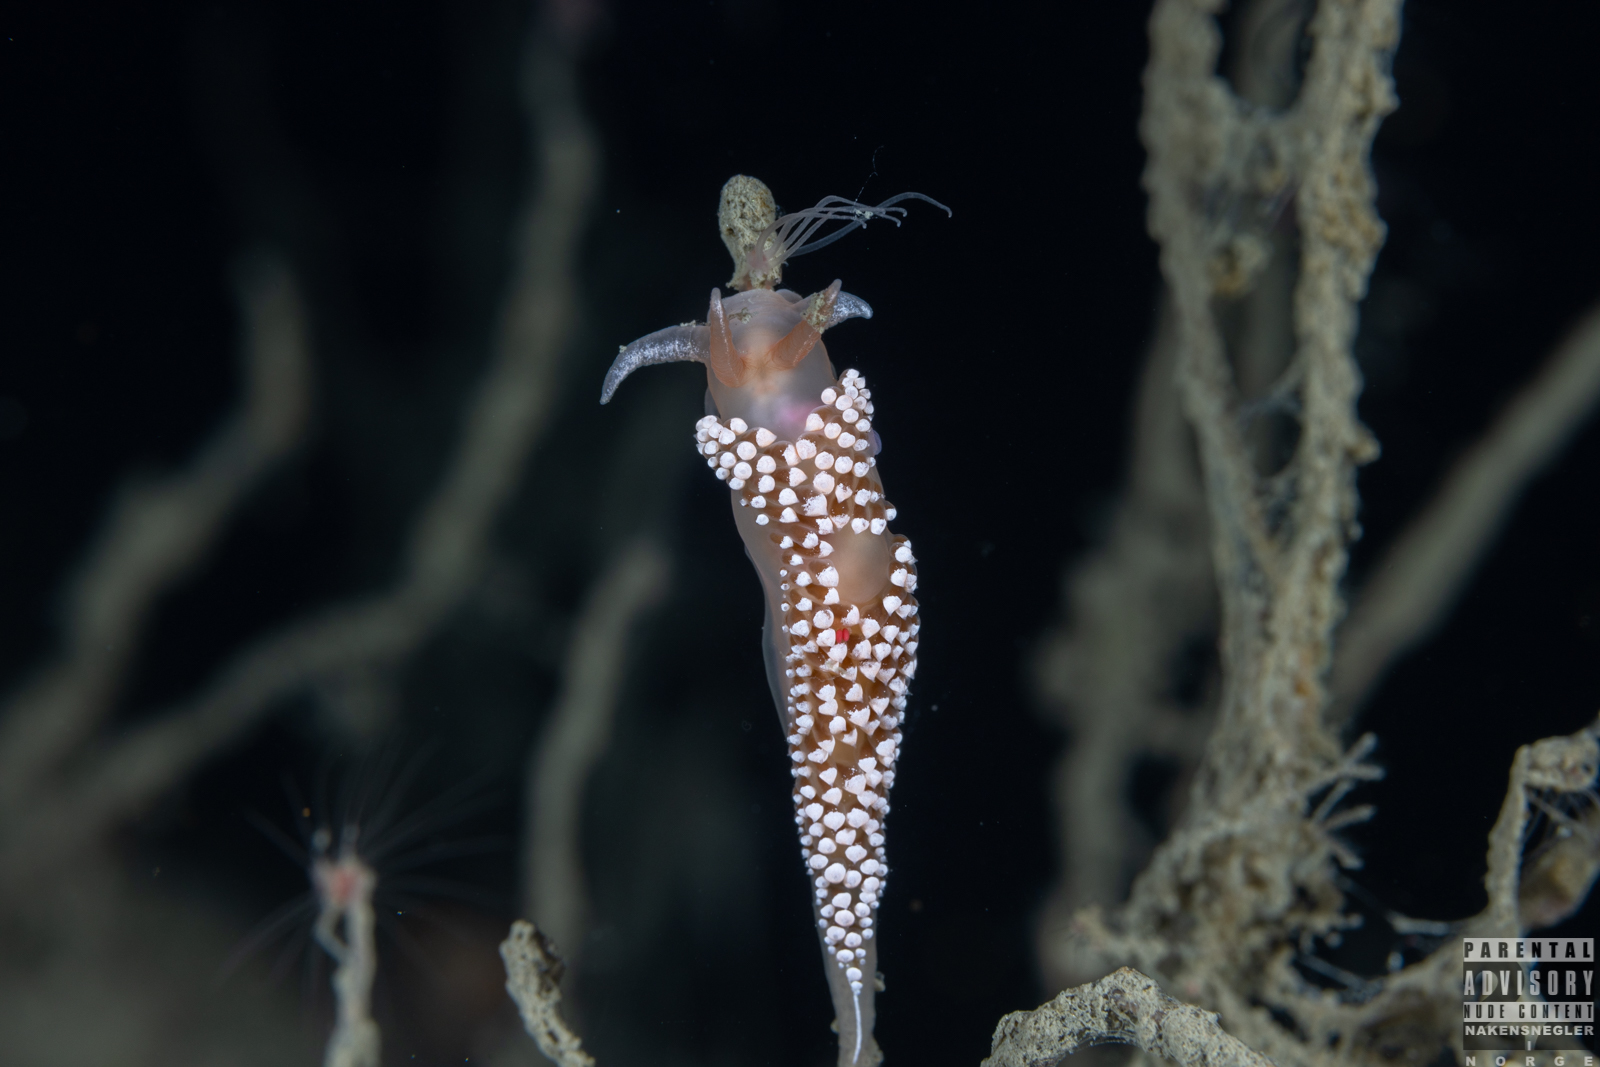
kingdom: Animalia
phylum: Mollusca
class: Gastropoda
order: Nudibranchia
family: Coryphellidae
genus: Coryphella
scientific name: Coryphella verrucosa
